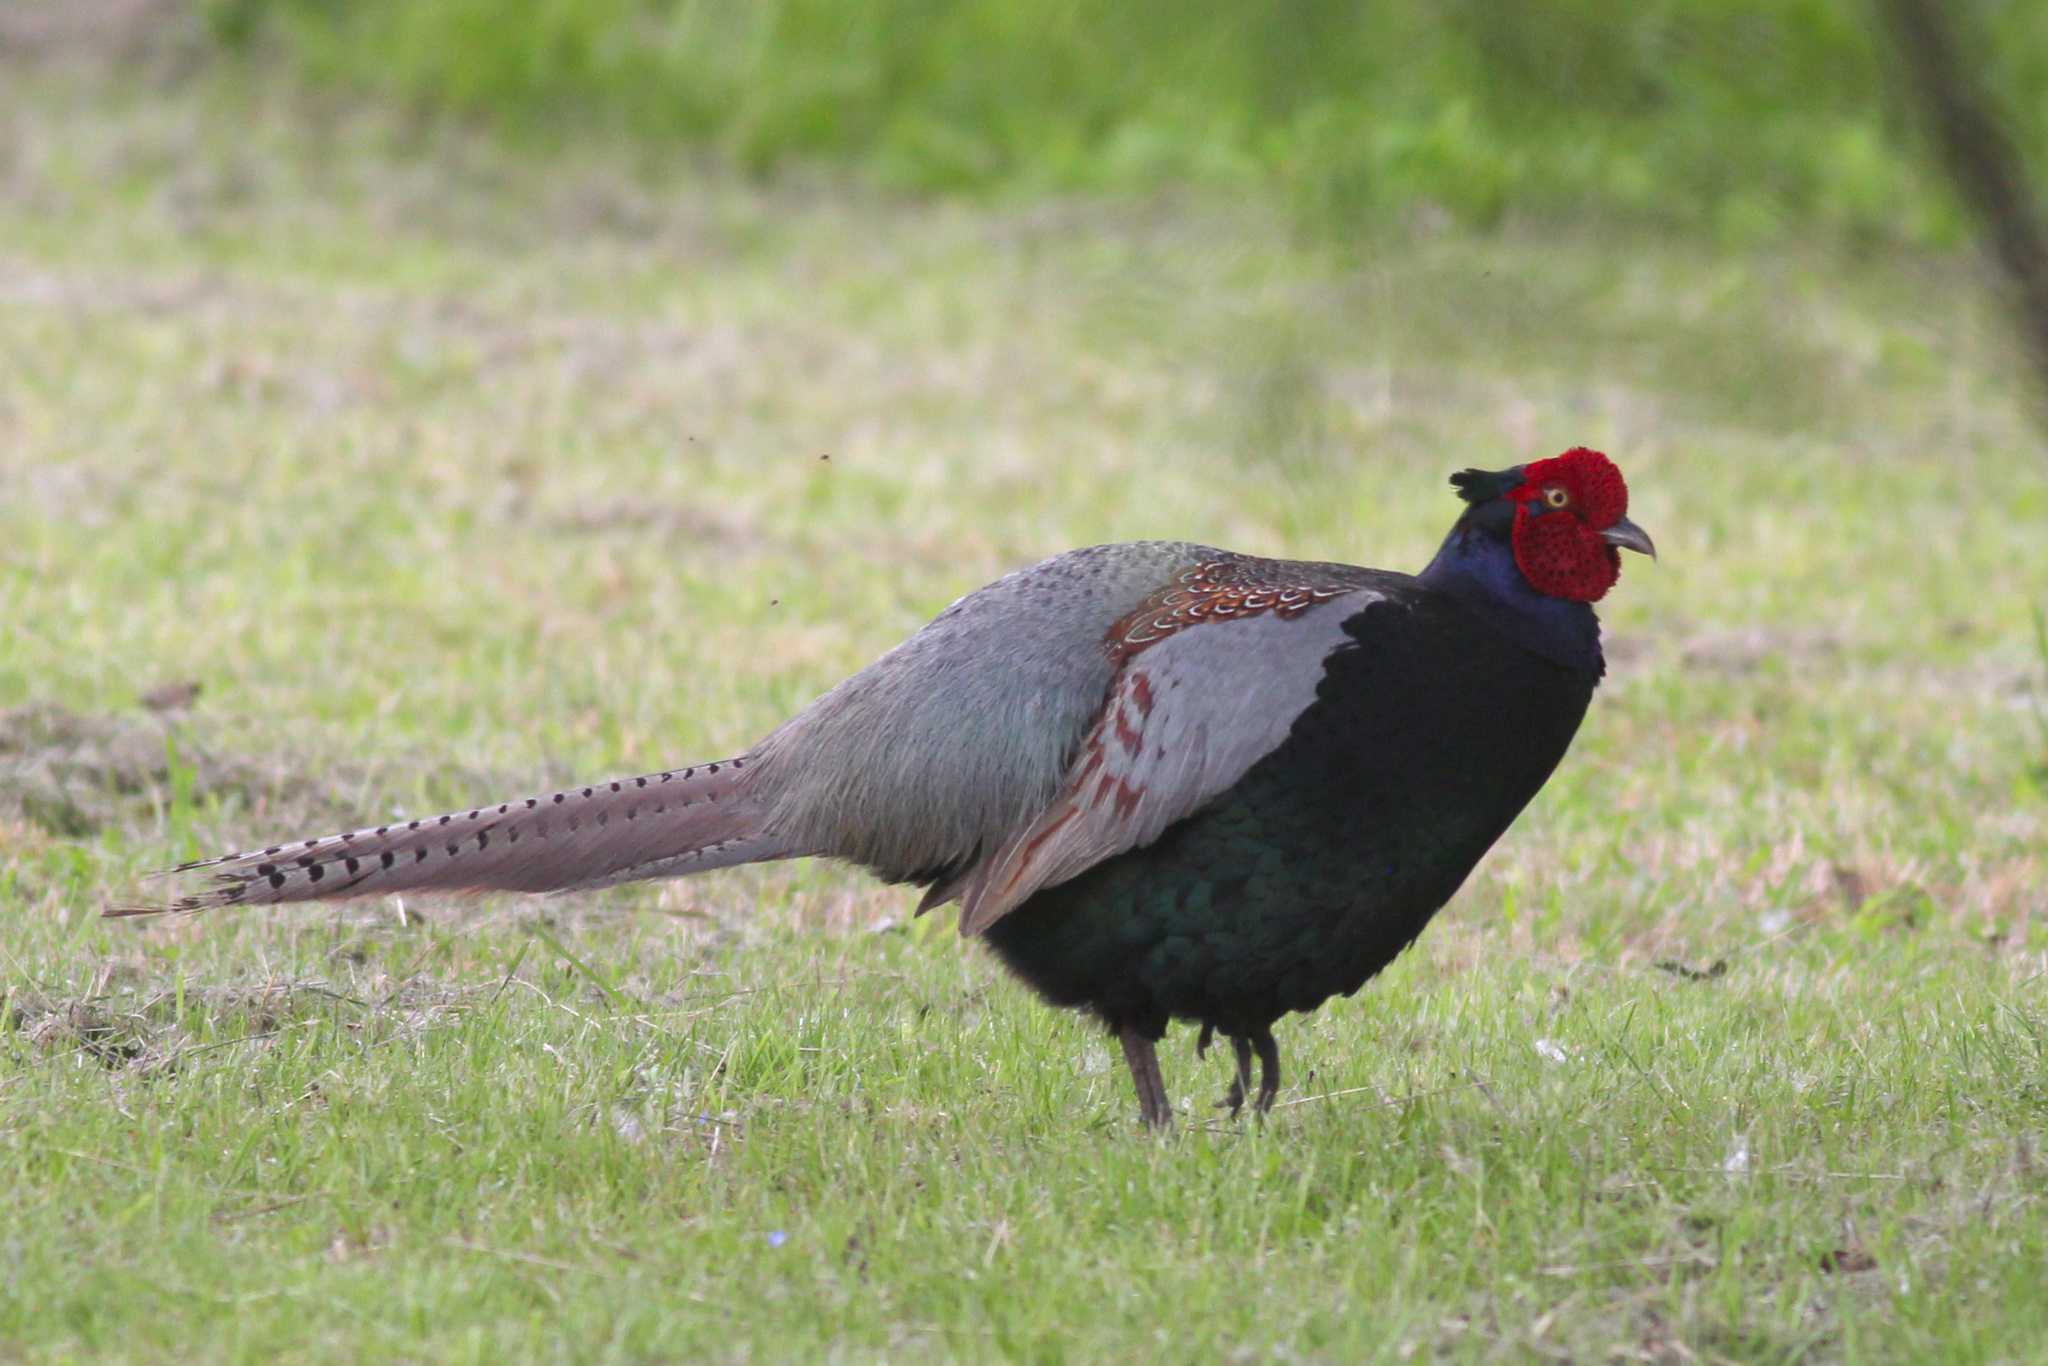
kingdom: Animalia
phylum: Chordata
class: Aves
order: Galliformes
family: Phasianidae
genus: Phasianus
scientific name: Phasianus versicolor
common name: Green pheasant
